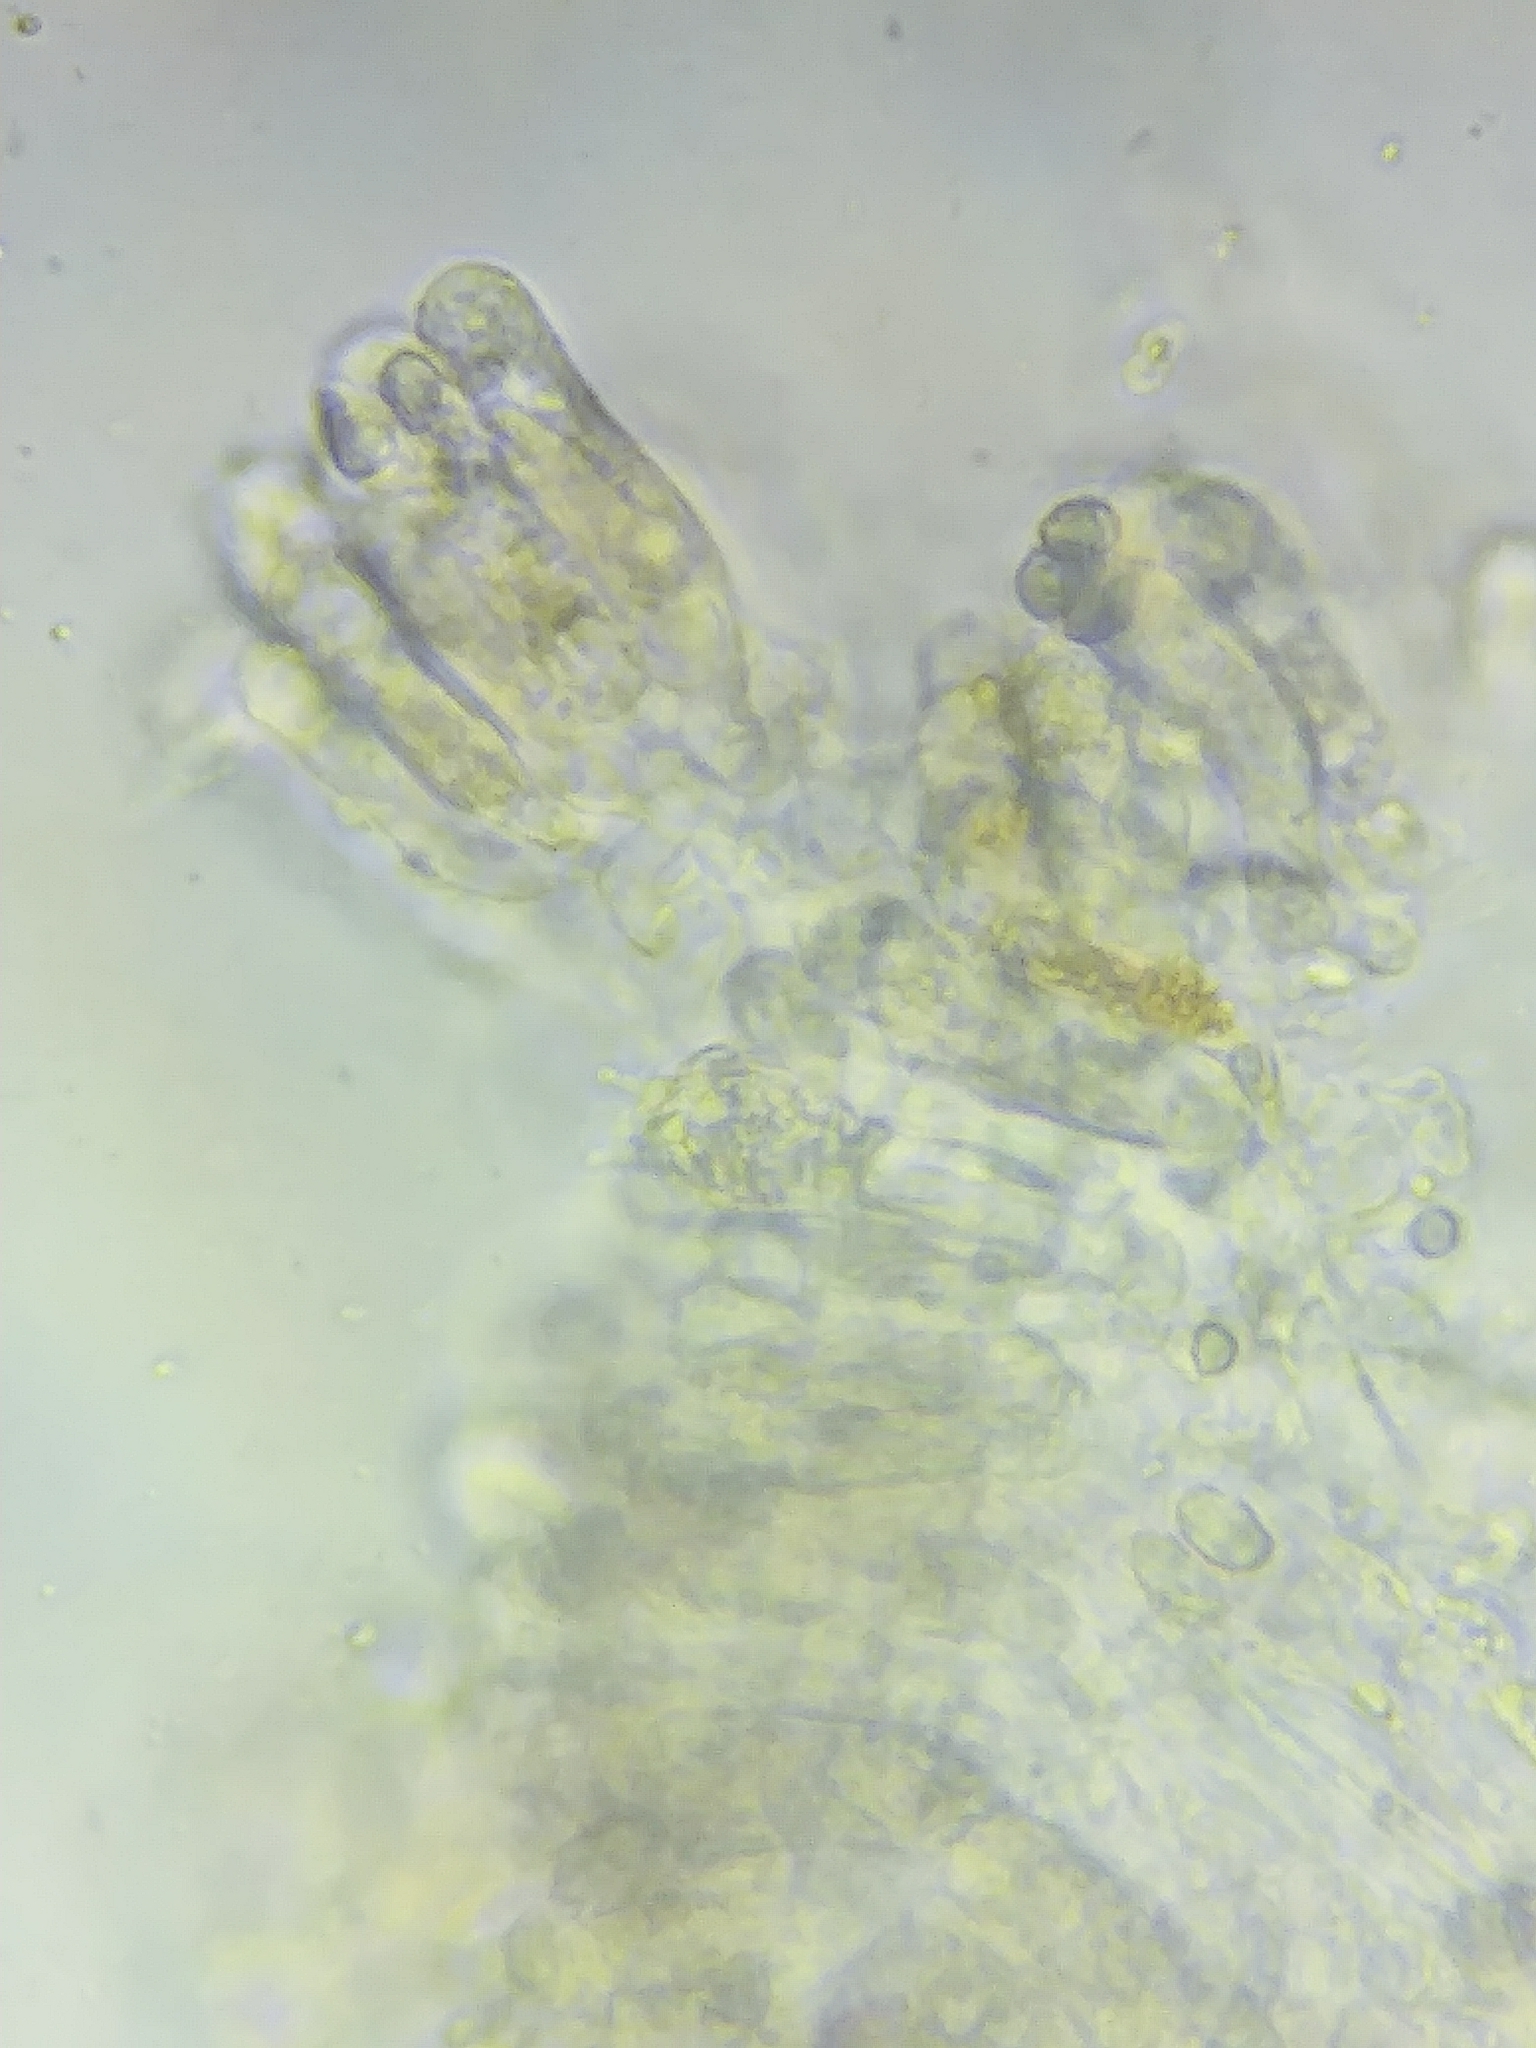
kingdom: Fungi
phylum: Basidiomycota
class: Agaricomycetes
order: Agaricales
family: Tricholomataceae
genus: Tricholoma
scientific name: Tricholoma odorum
